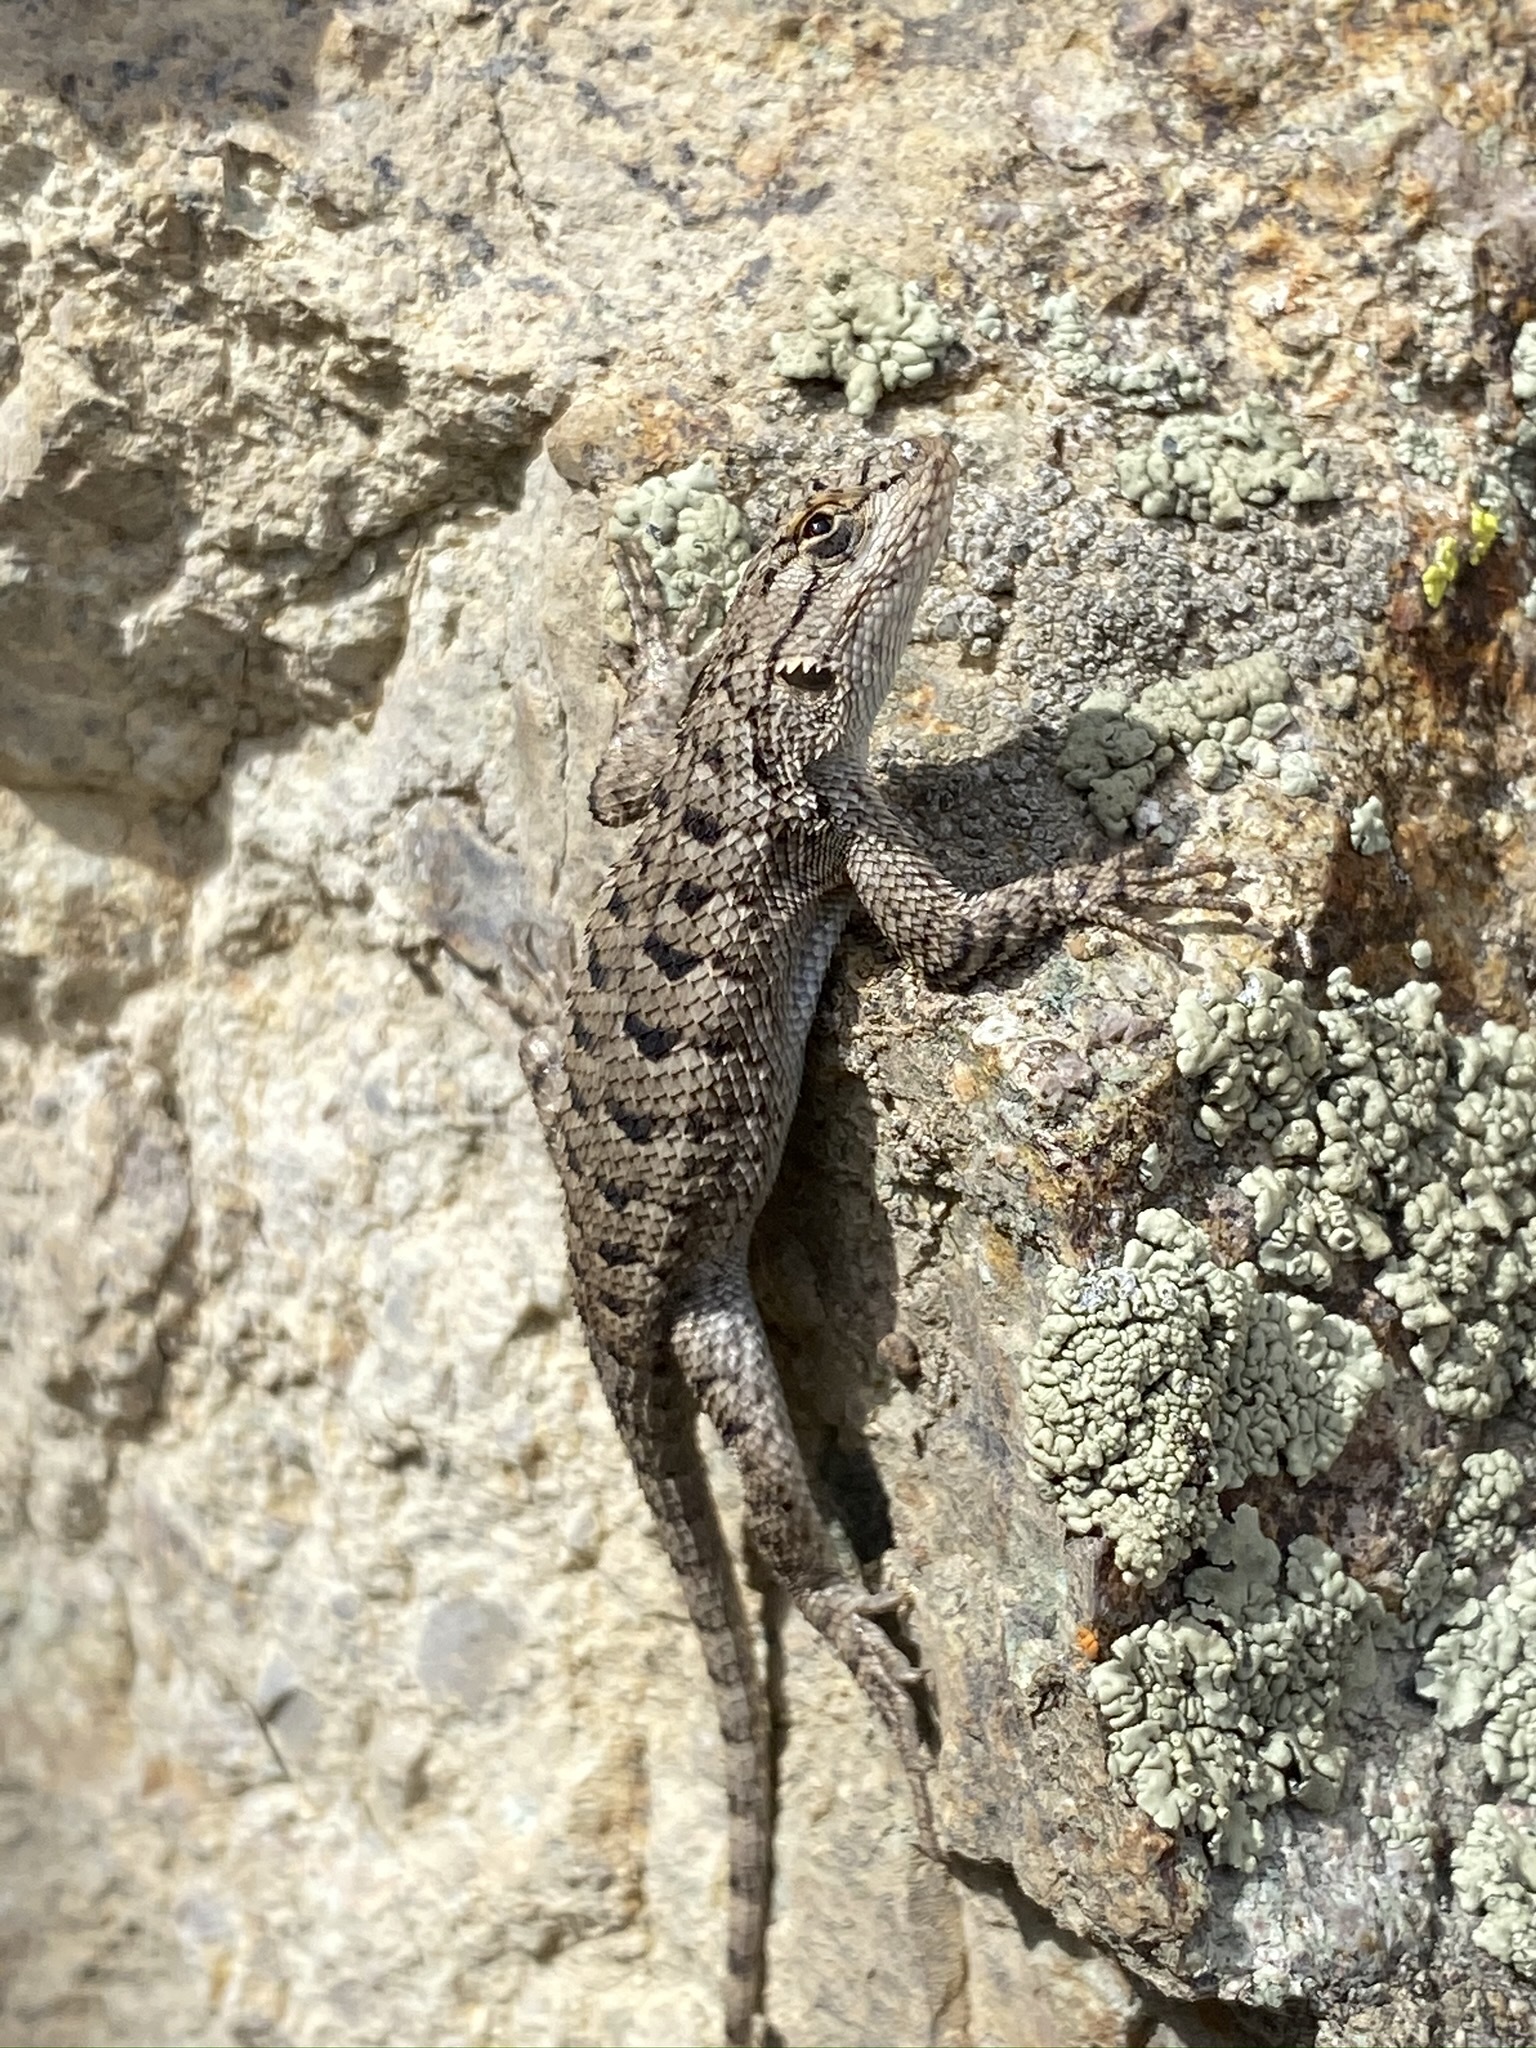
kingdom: Animalia
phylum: Chordata
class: Squamata
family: Phrynosomatidae
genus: Sceloporus
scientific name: Sceloporus occidentalis
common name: Western fence lizard
